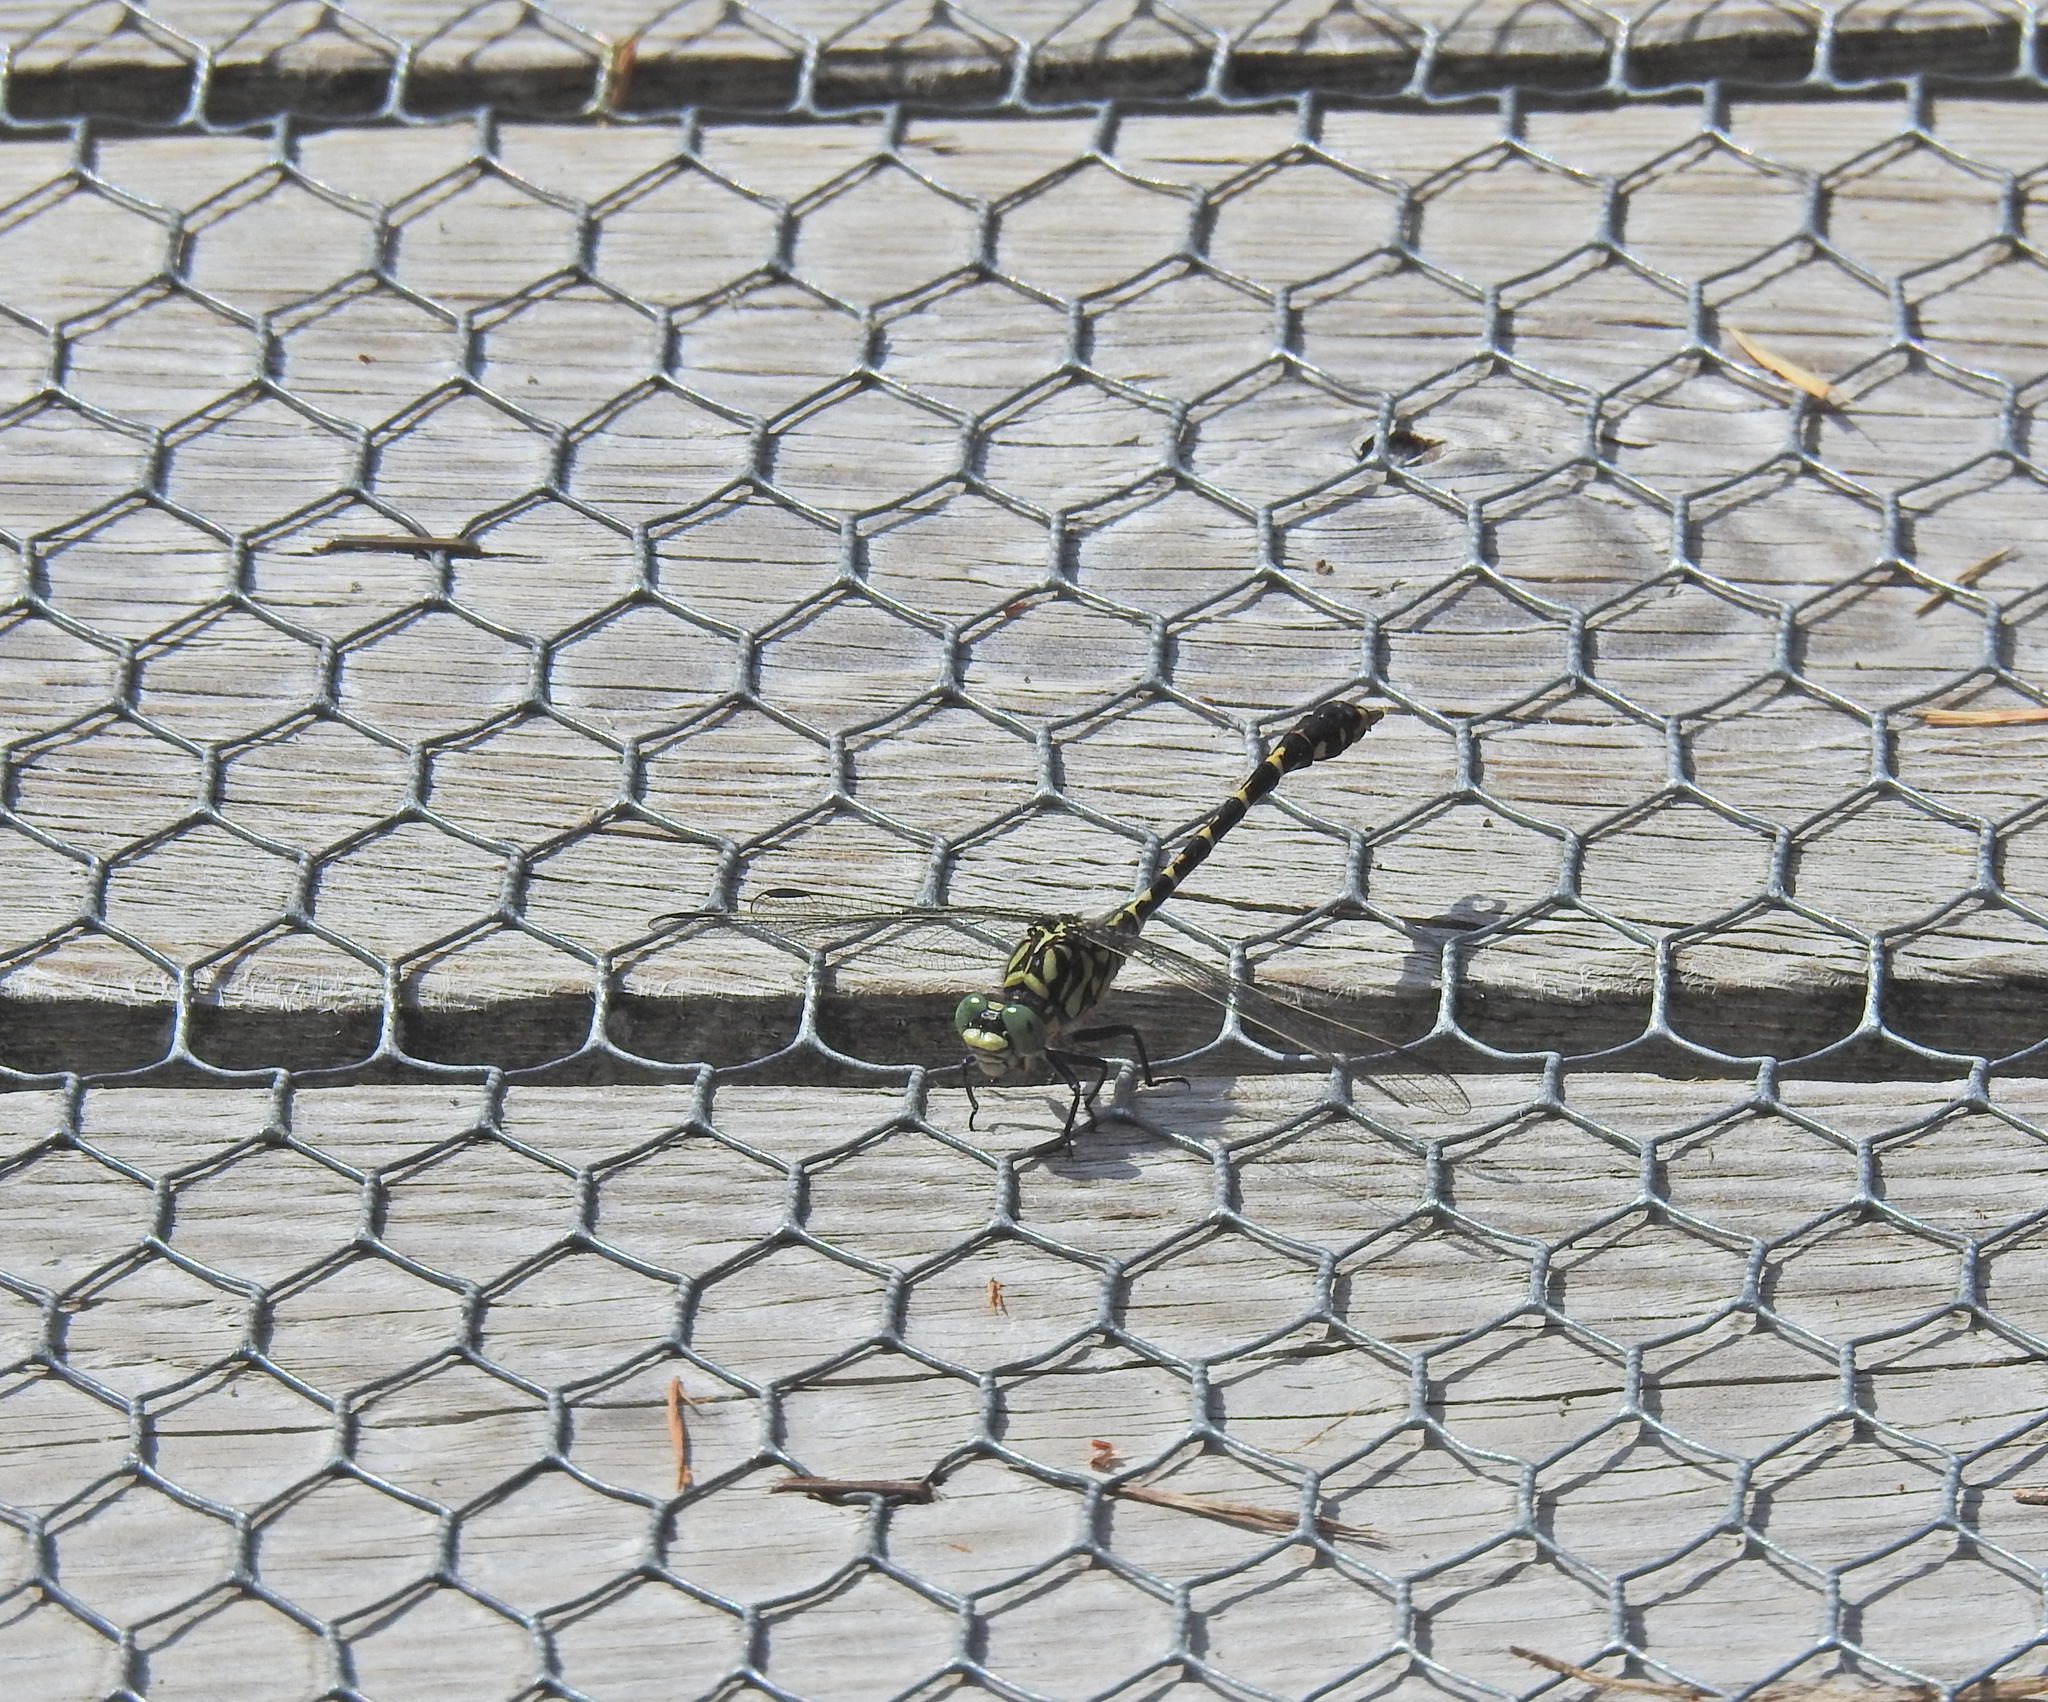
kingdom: Animalia
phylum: Arthropoda
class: Insecta
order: Odonata
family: Gomphidae
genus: Onychogomphus
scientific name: Onychogomphus forcipatus
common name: Small pincertail
